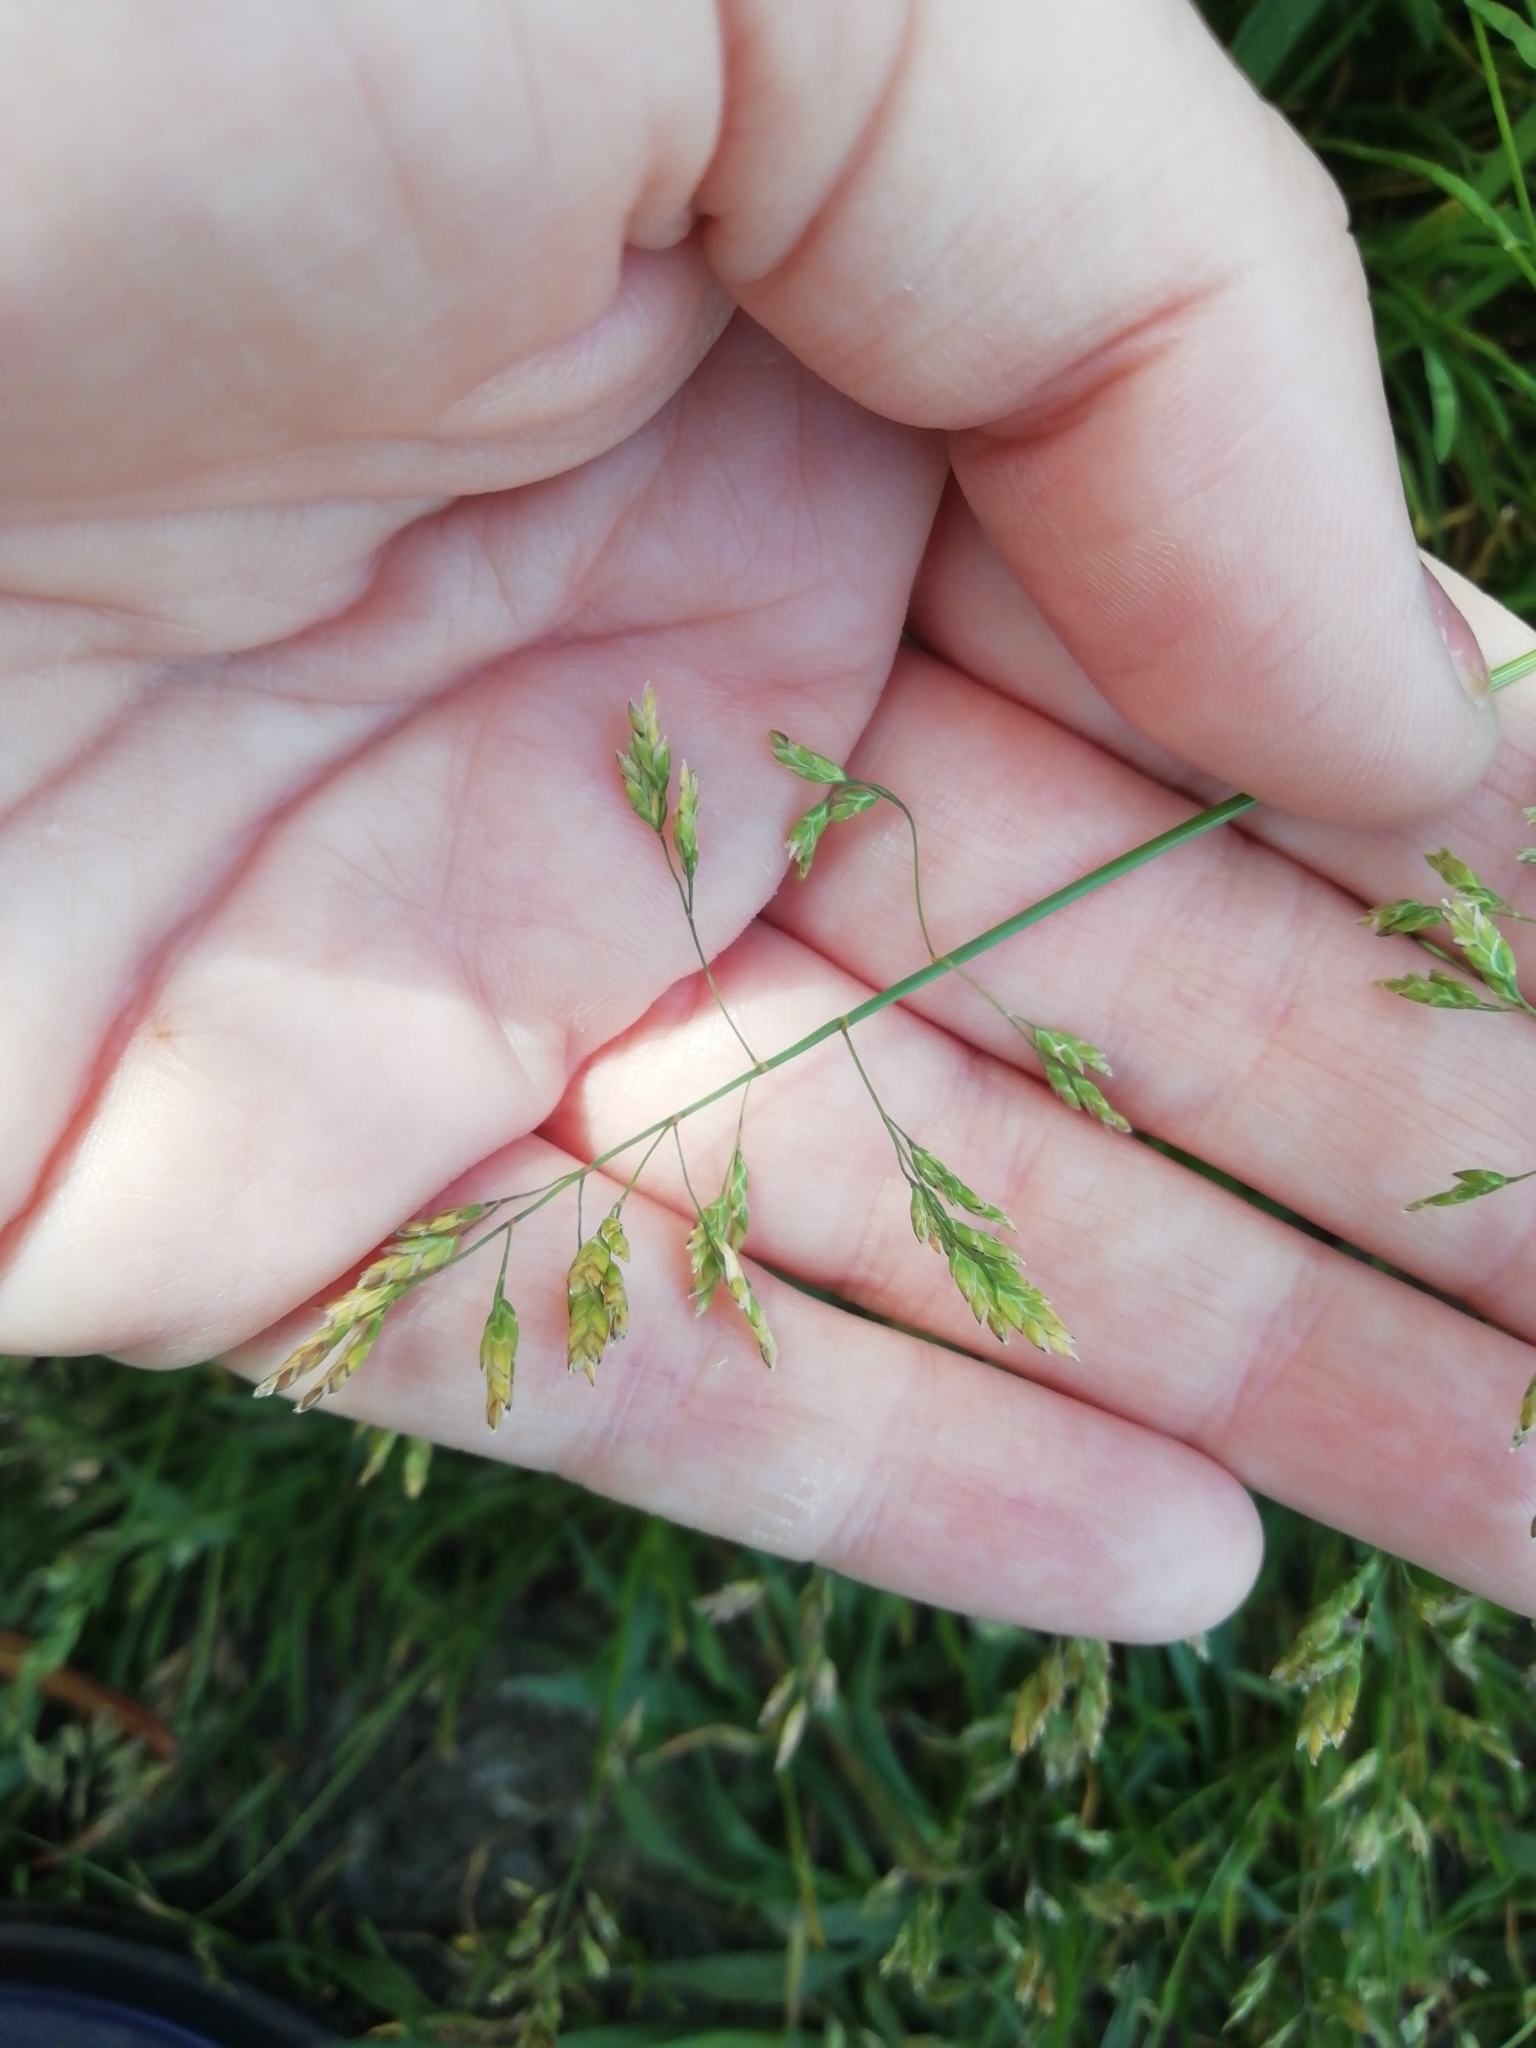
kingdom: Plantae
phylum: Tracheophyta
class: Liliopsida
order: Poales
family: Poaceae
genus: Poa
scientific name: Poa annua
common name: Annual bluegrass
